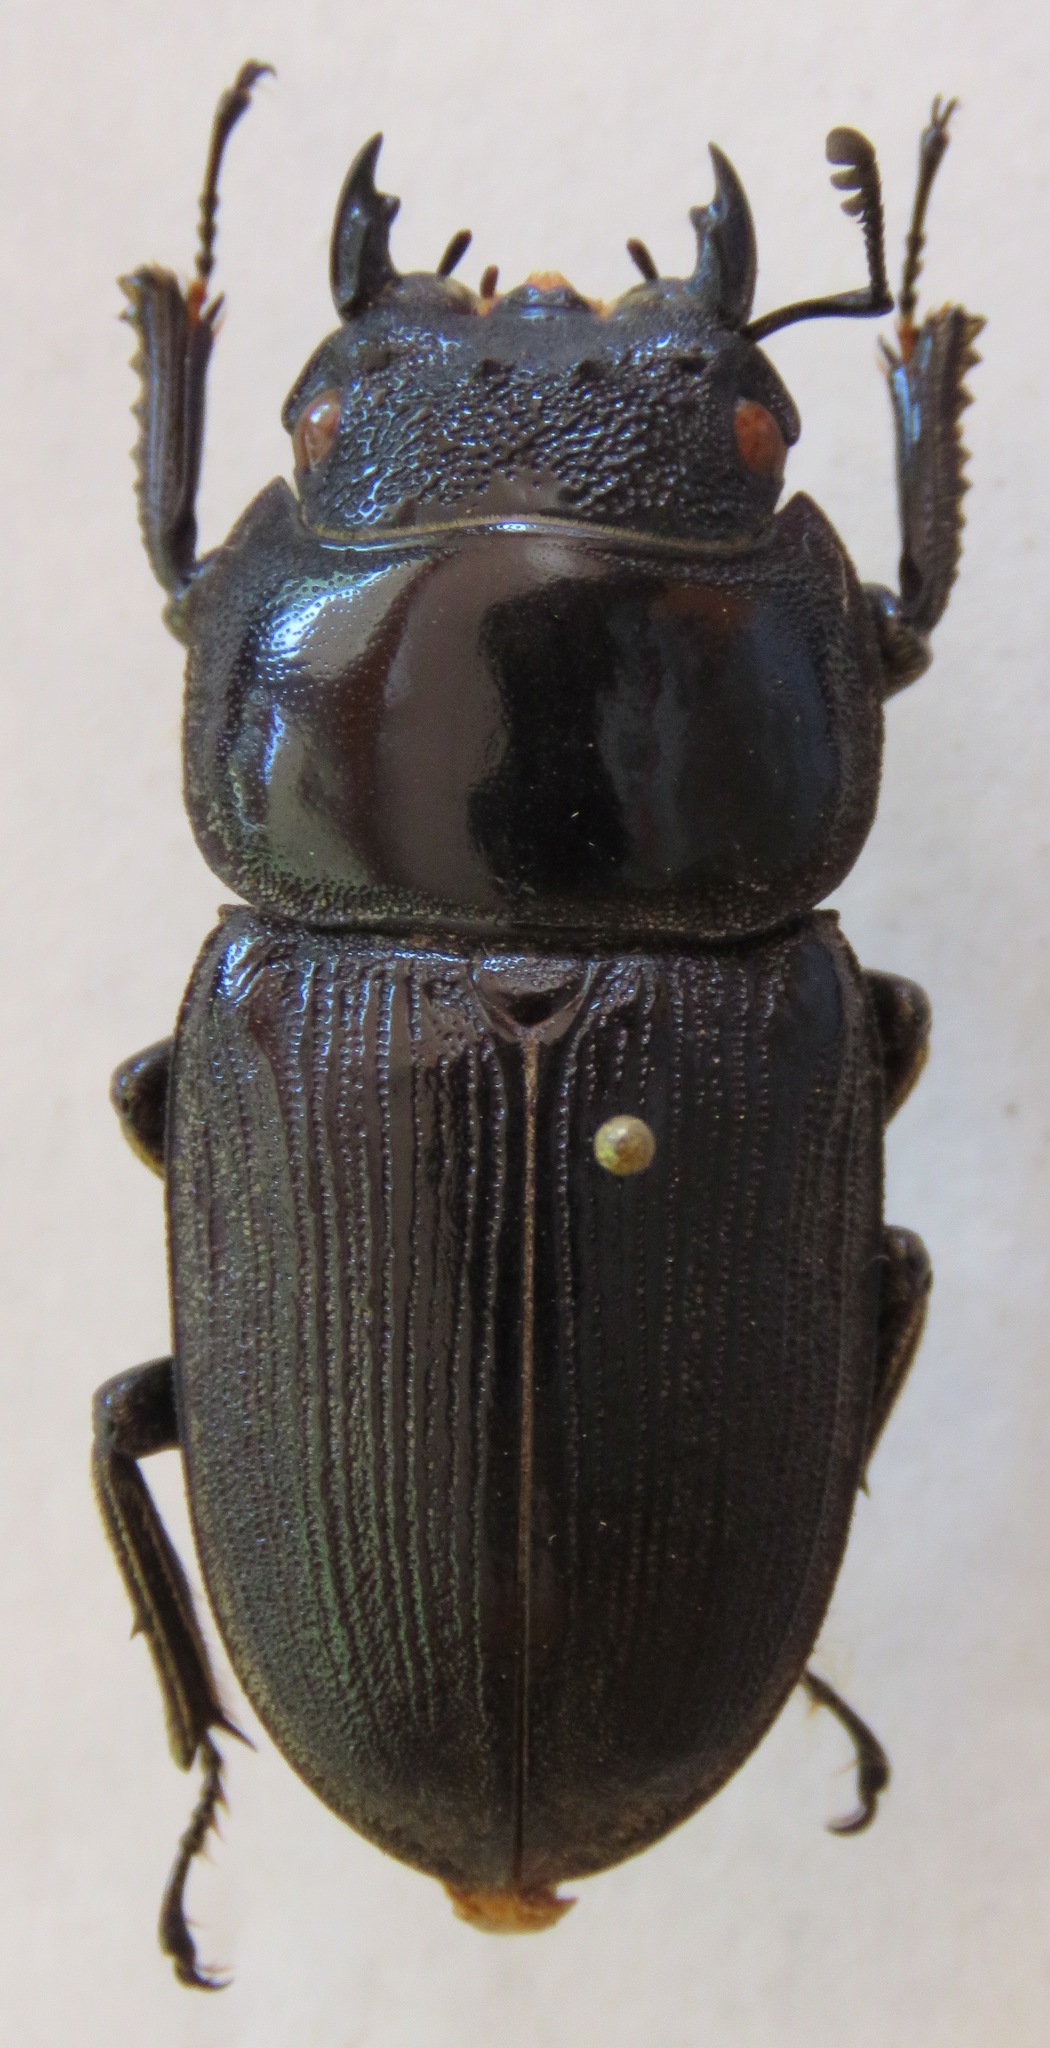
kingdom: Animalia
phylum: Arthropoda
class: Insecta
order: Coleoptera
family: Lucanidae
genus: Dorcus
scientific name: Dorcus ritsemae
